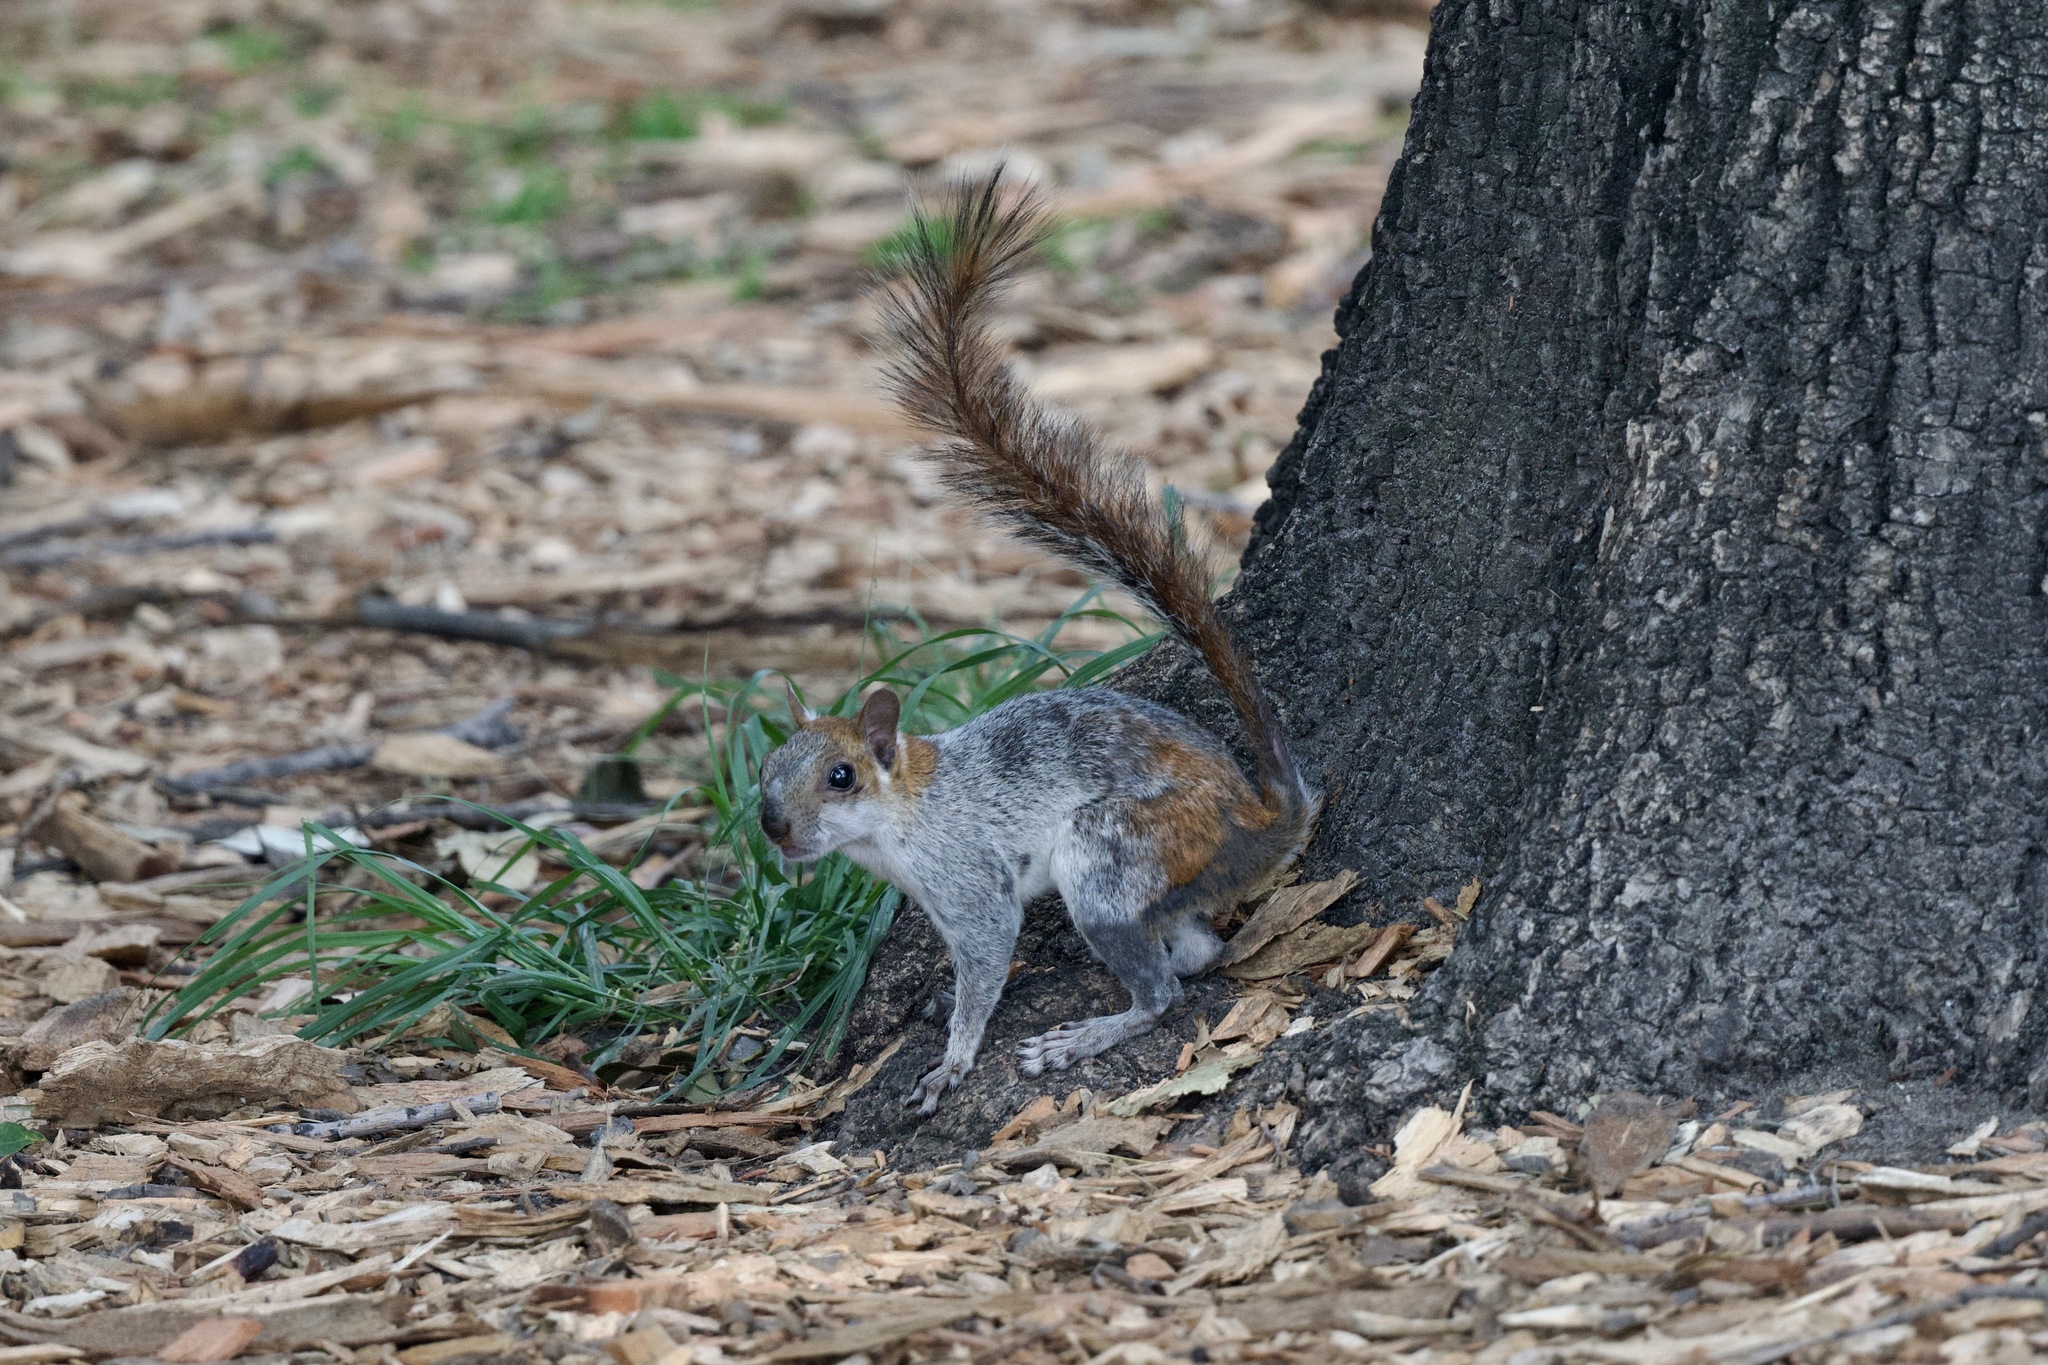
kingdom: Animalia
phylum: Chordata
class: Mammalia
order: Rodentia
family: Sciuridae
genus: Sciurus
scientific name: Sciurus aureogaster
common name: Red-bellied squirrel
